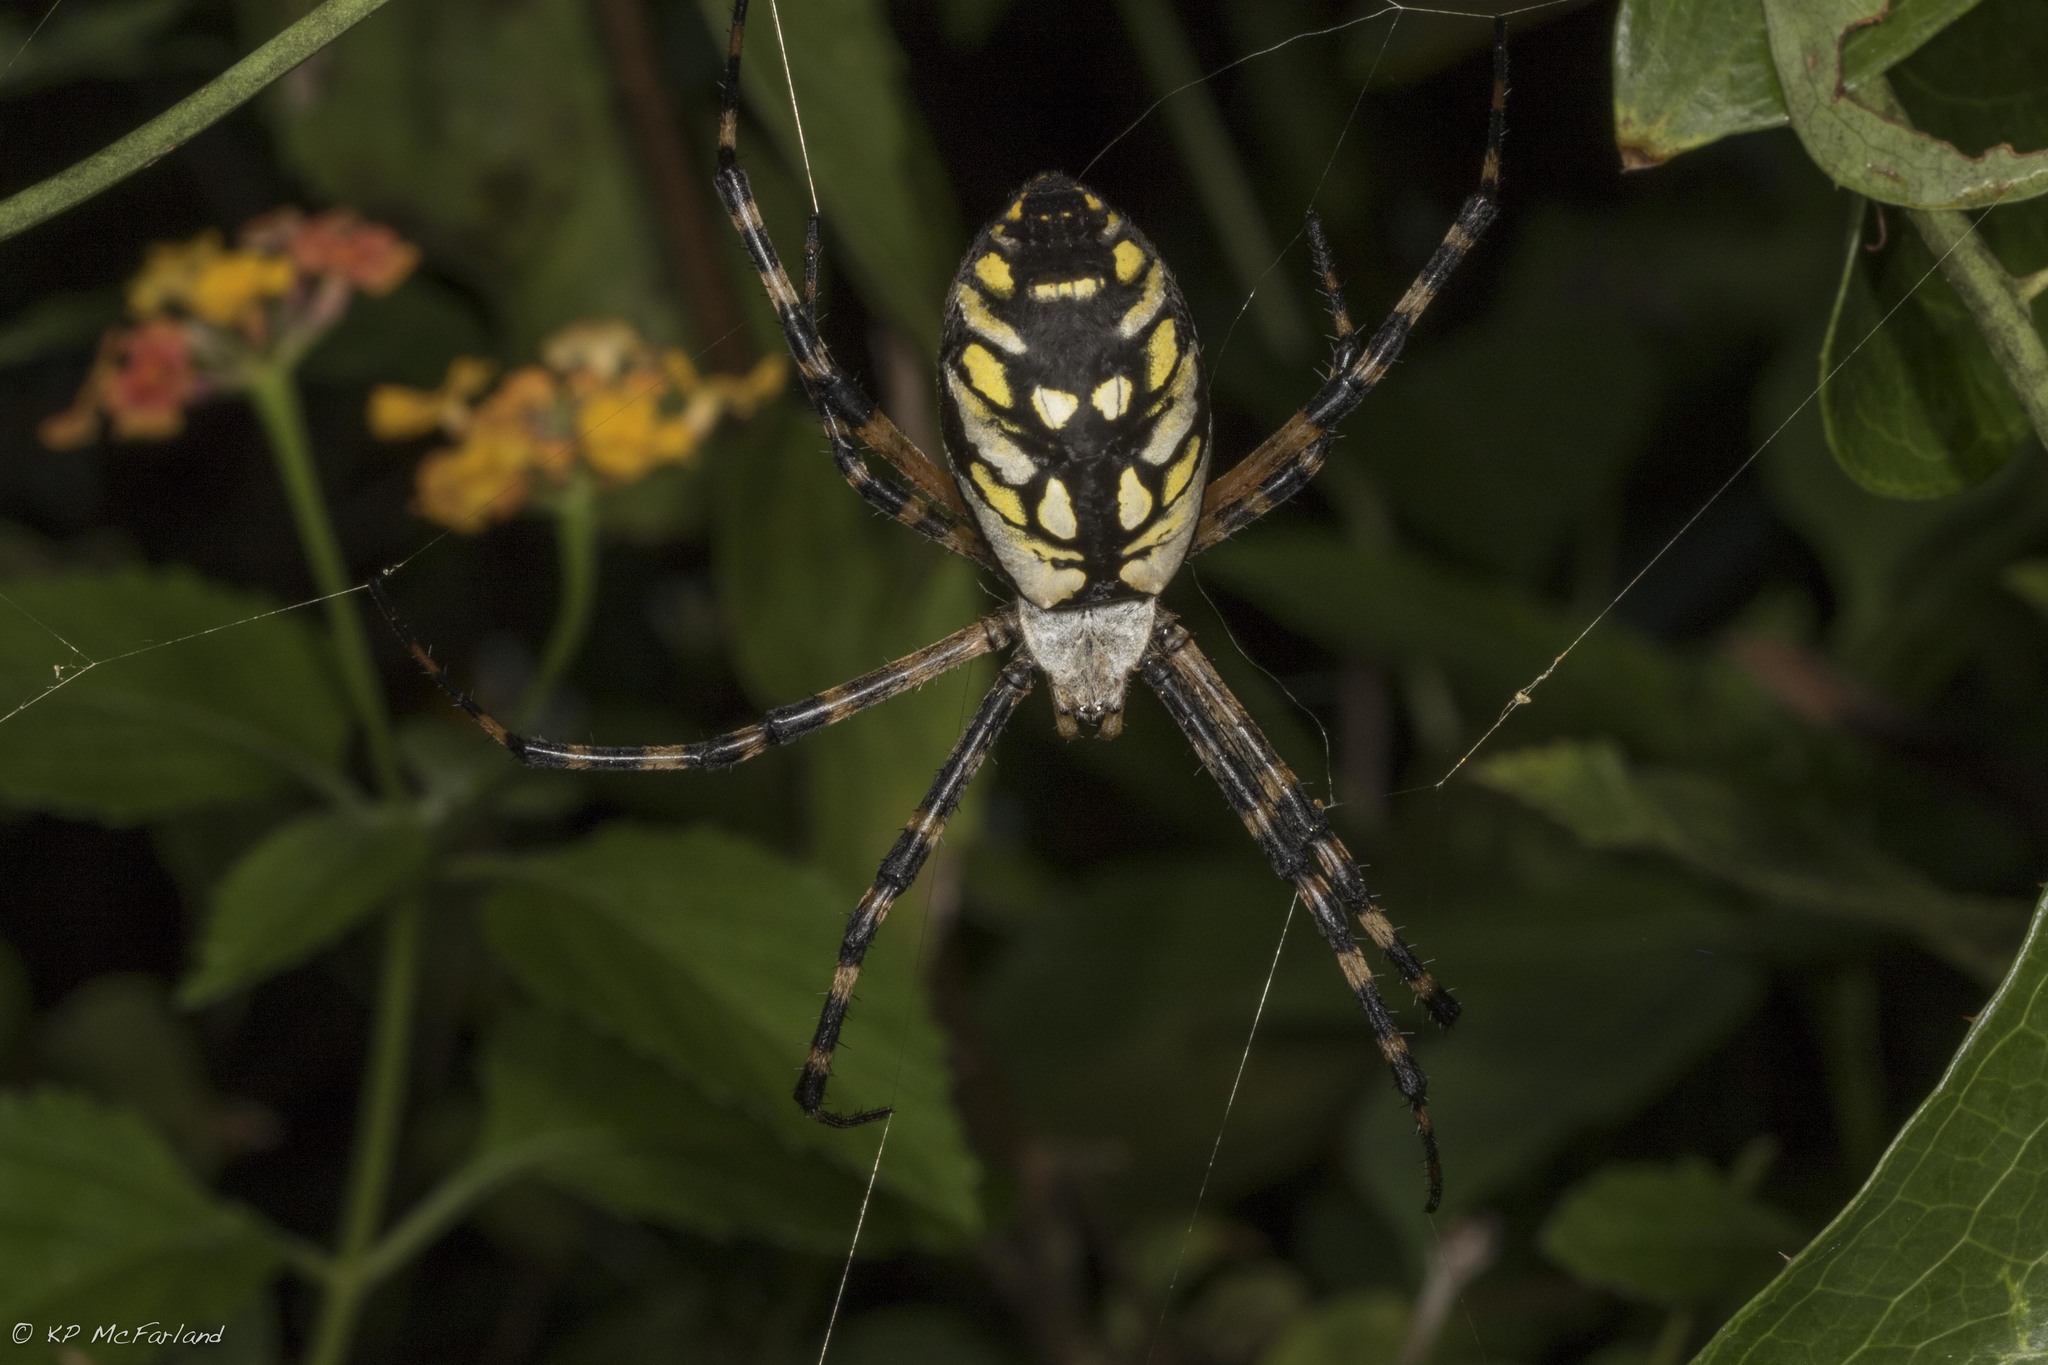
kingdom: Animalia
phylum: Arthropoda
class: Arachnida
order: Araneae
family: Araneidae
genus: Argiope
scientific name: Argiope aurantia
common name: Orb weavers
